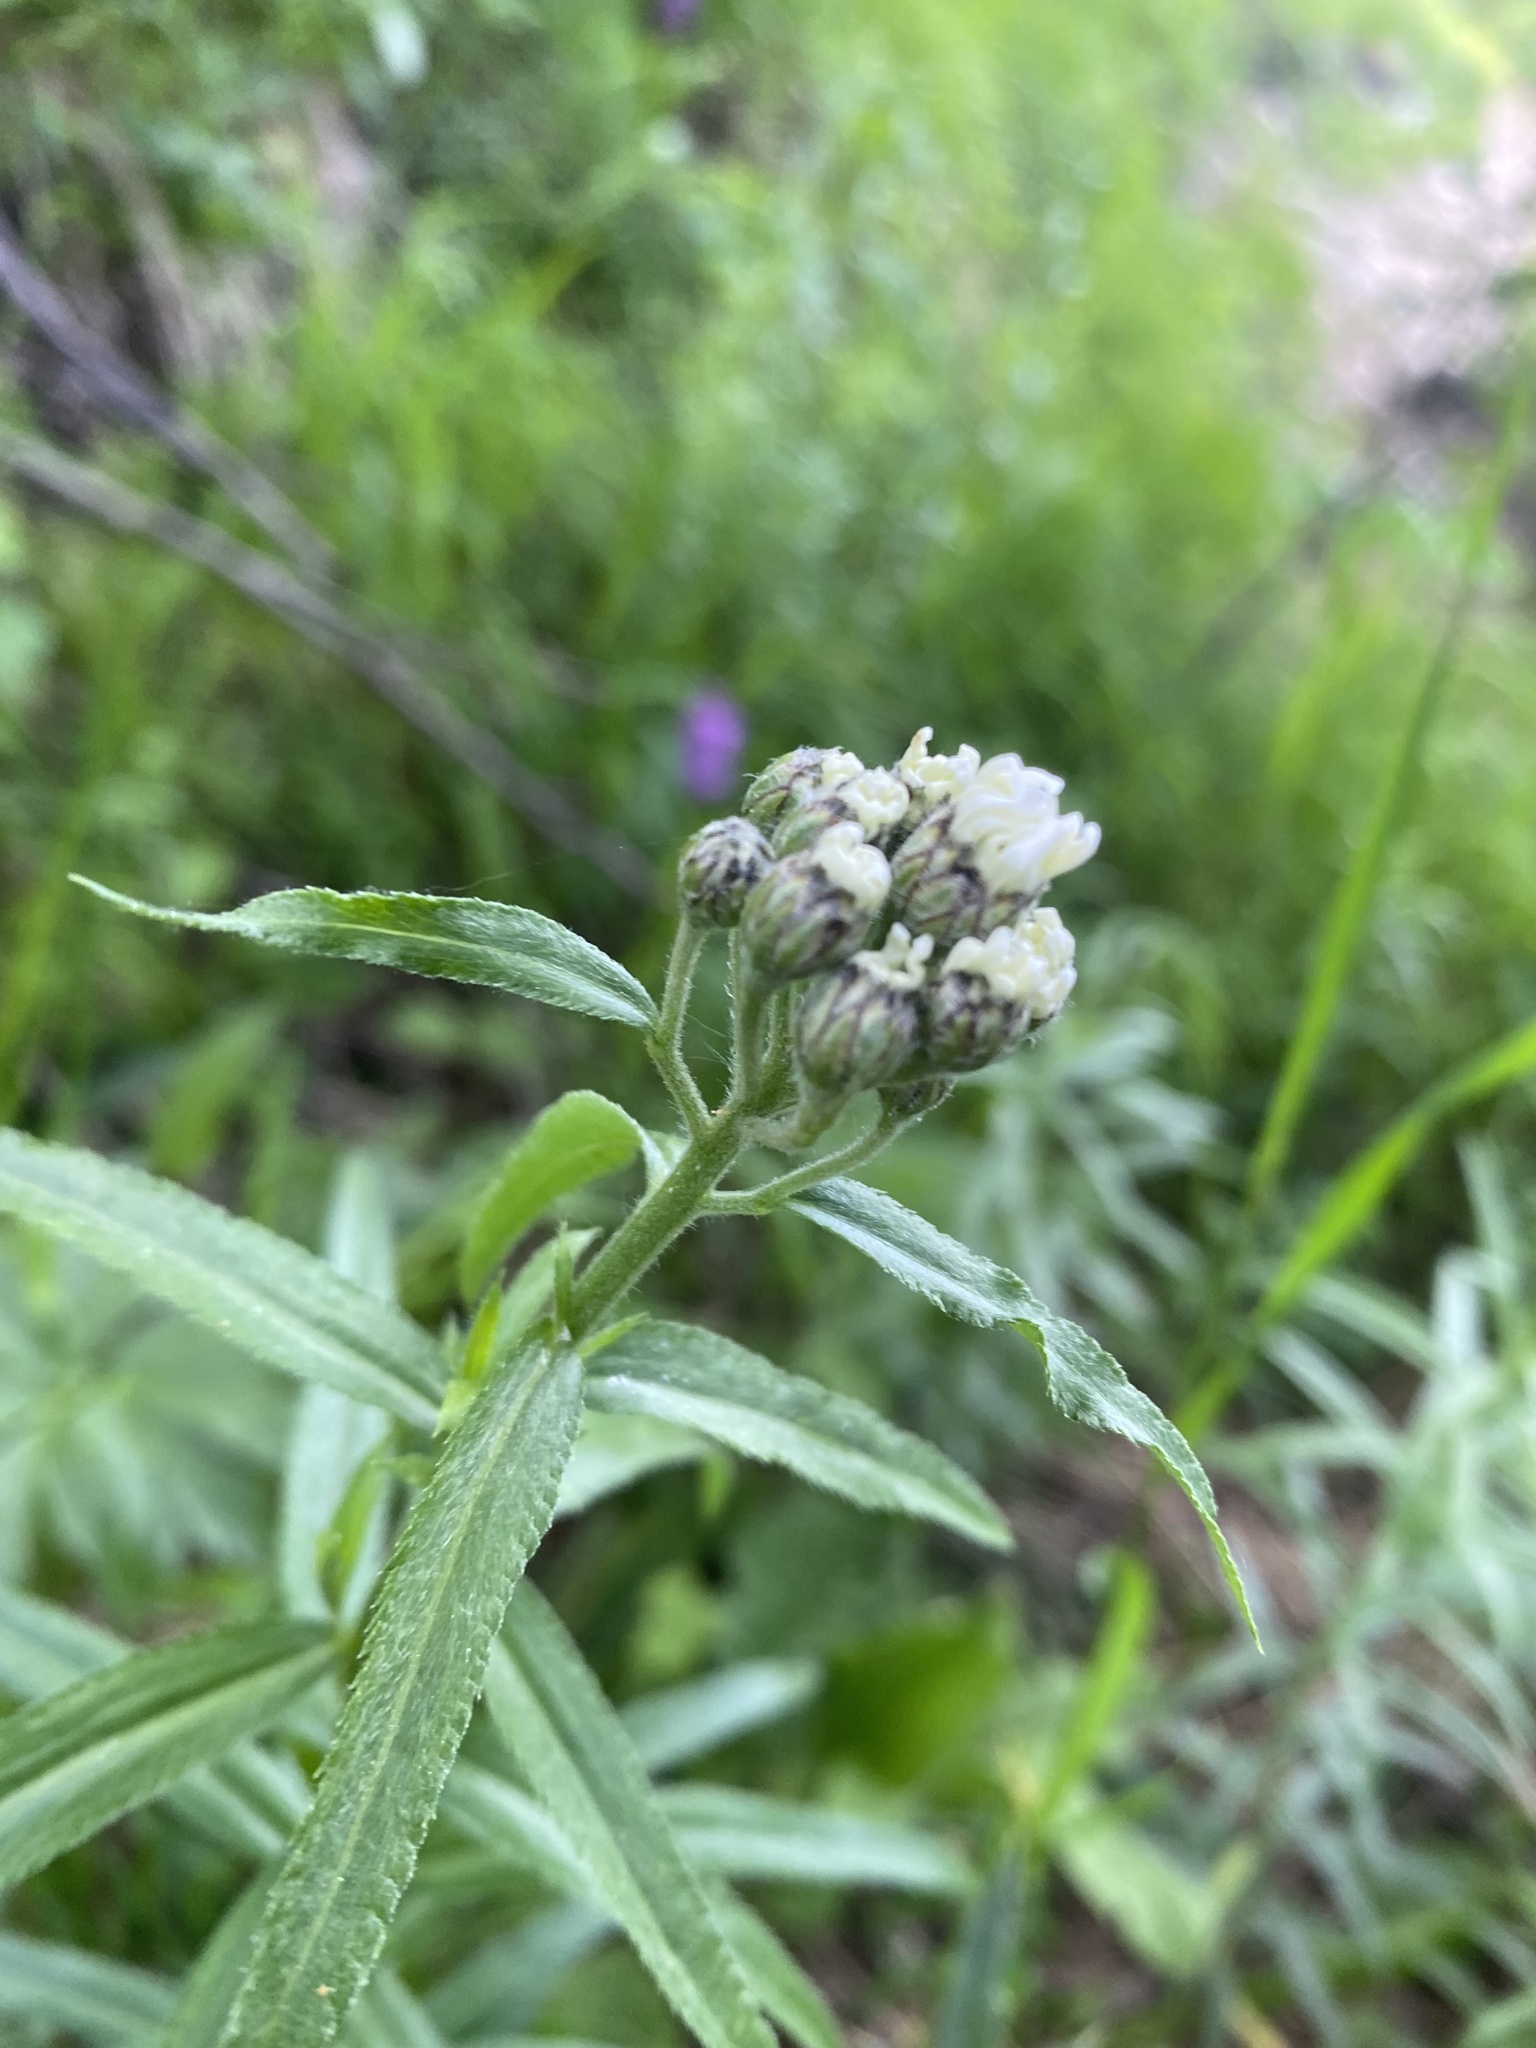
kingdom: Plantae
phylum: Tracheophyta
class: Magnoliopsida
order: Asterales
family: Asteraceae
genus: Achillea
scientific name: Achillea biserrata
